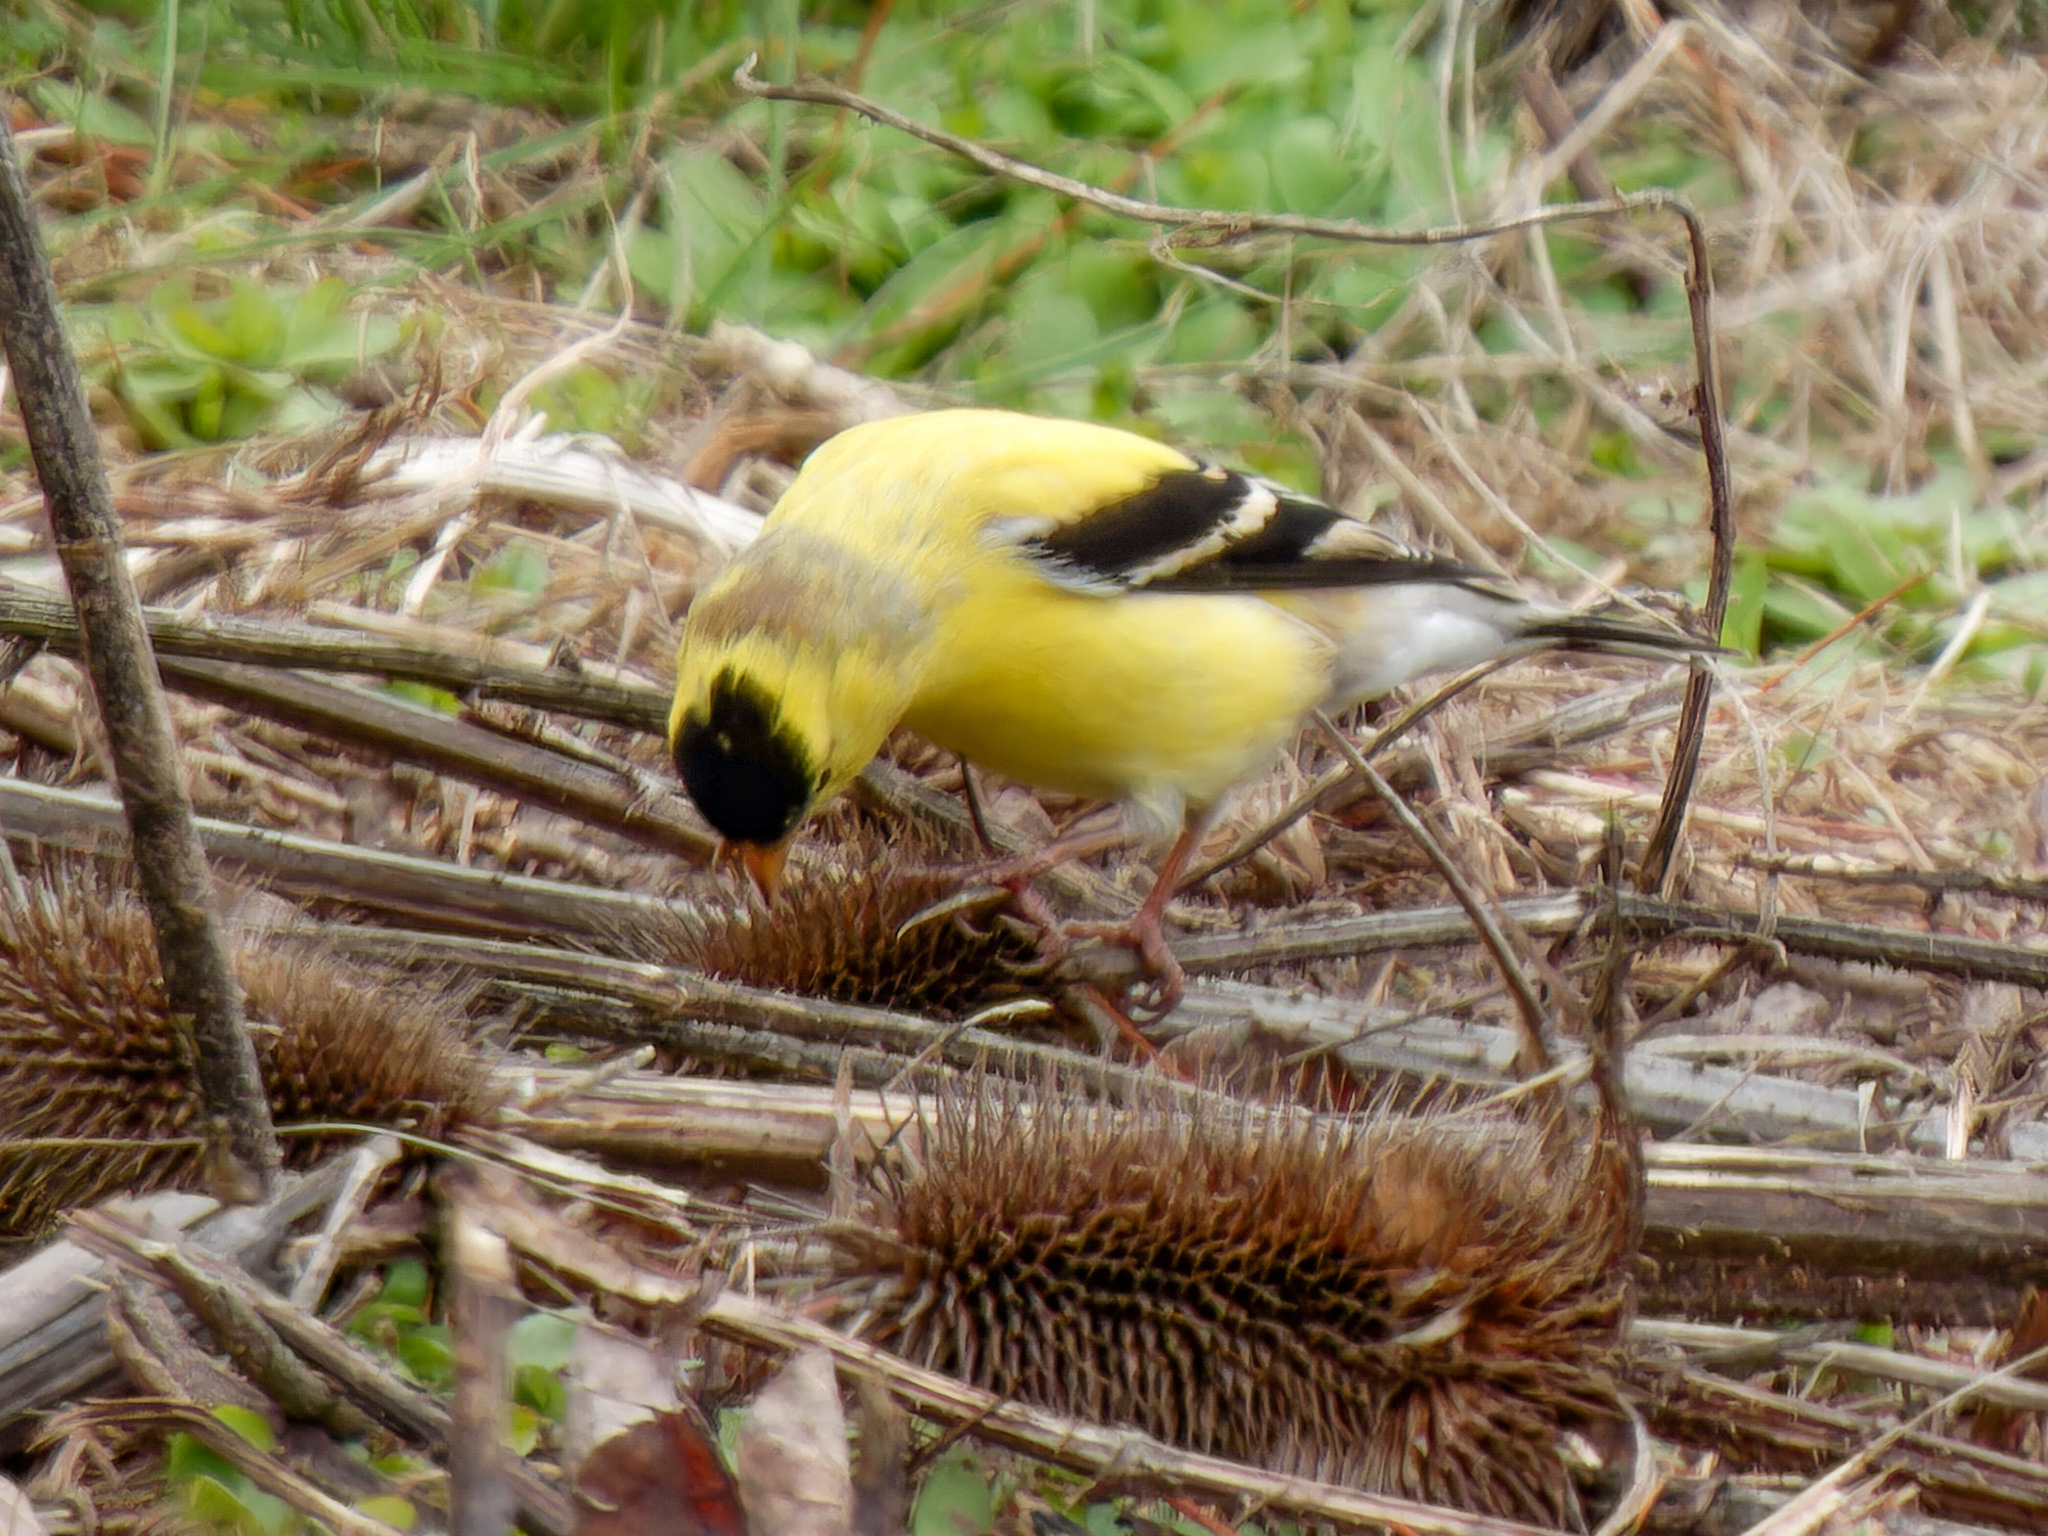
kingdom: Animalia
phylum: Chordata
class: Aves
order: Passeriformes
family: Fringillidae
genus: Spinus
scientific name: Spinus tristis
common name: American goldfinch
